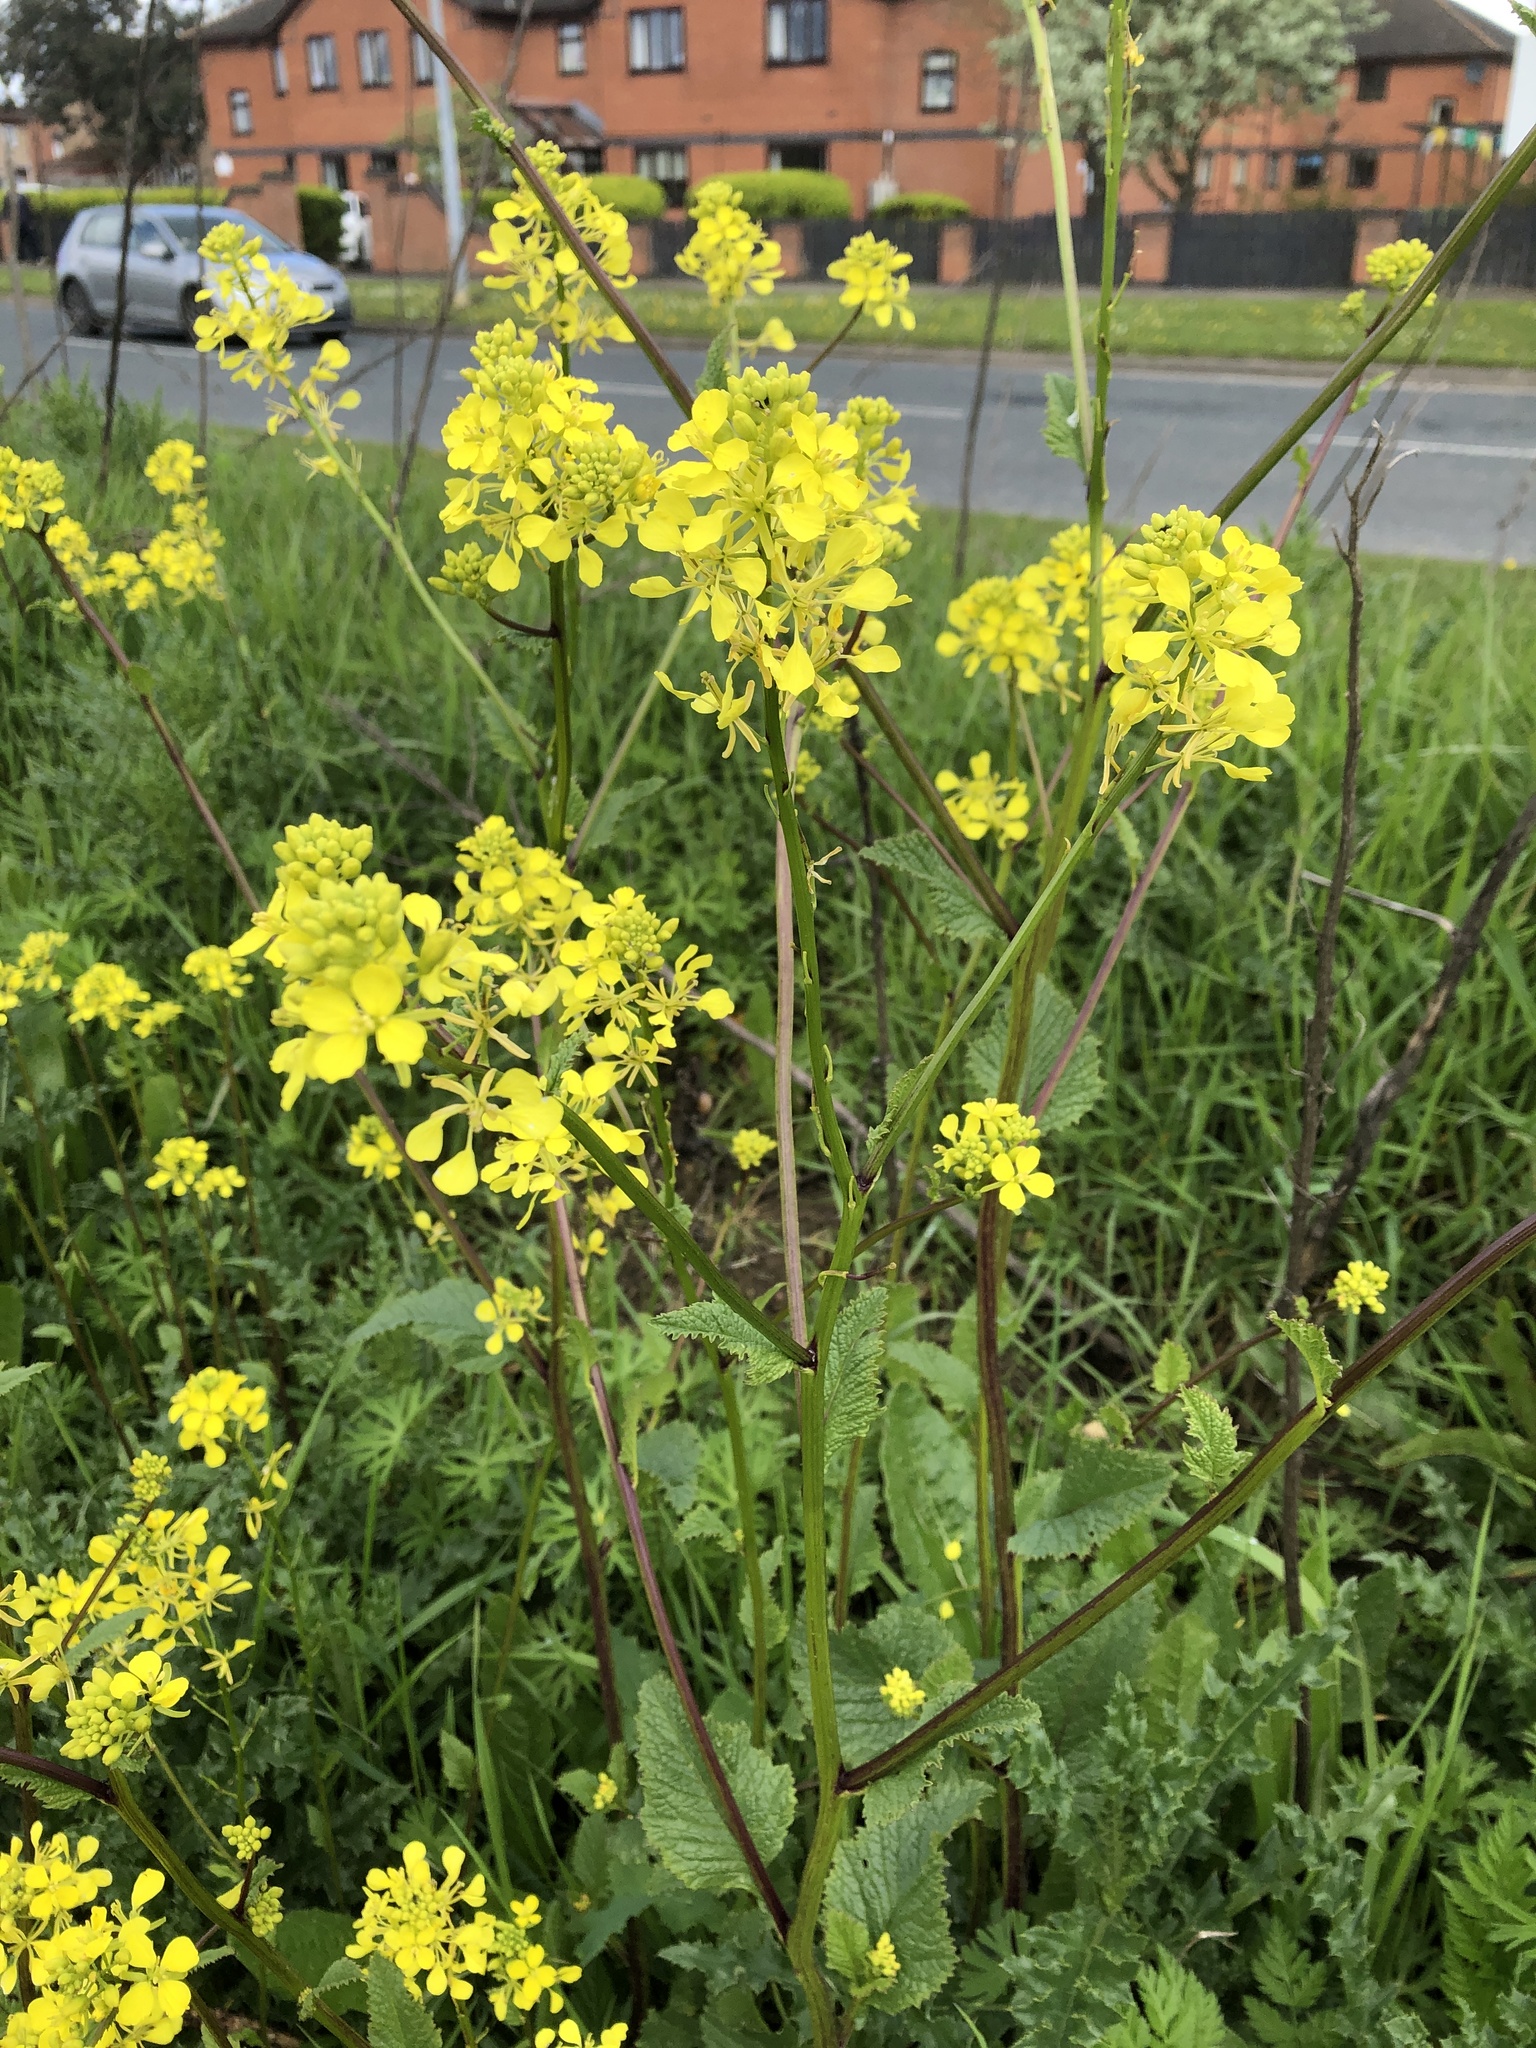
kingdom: Plantae
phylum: Tracheophyta
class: Magnoliopsida
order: Brassicales
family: Brassicaceae
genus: Sinapis
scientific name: Sinapis arvensis
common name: Charlock
